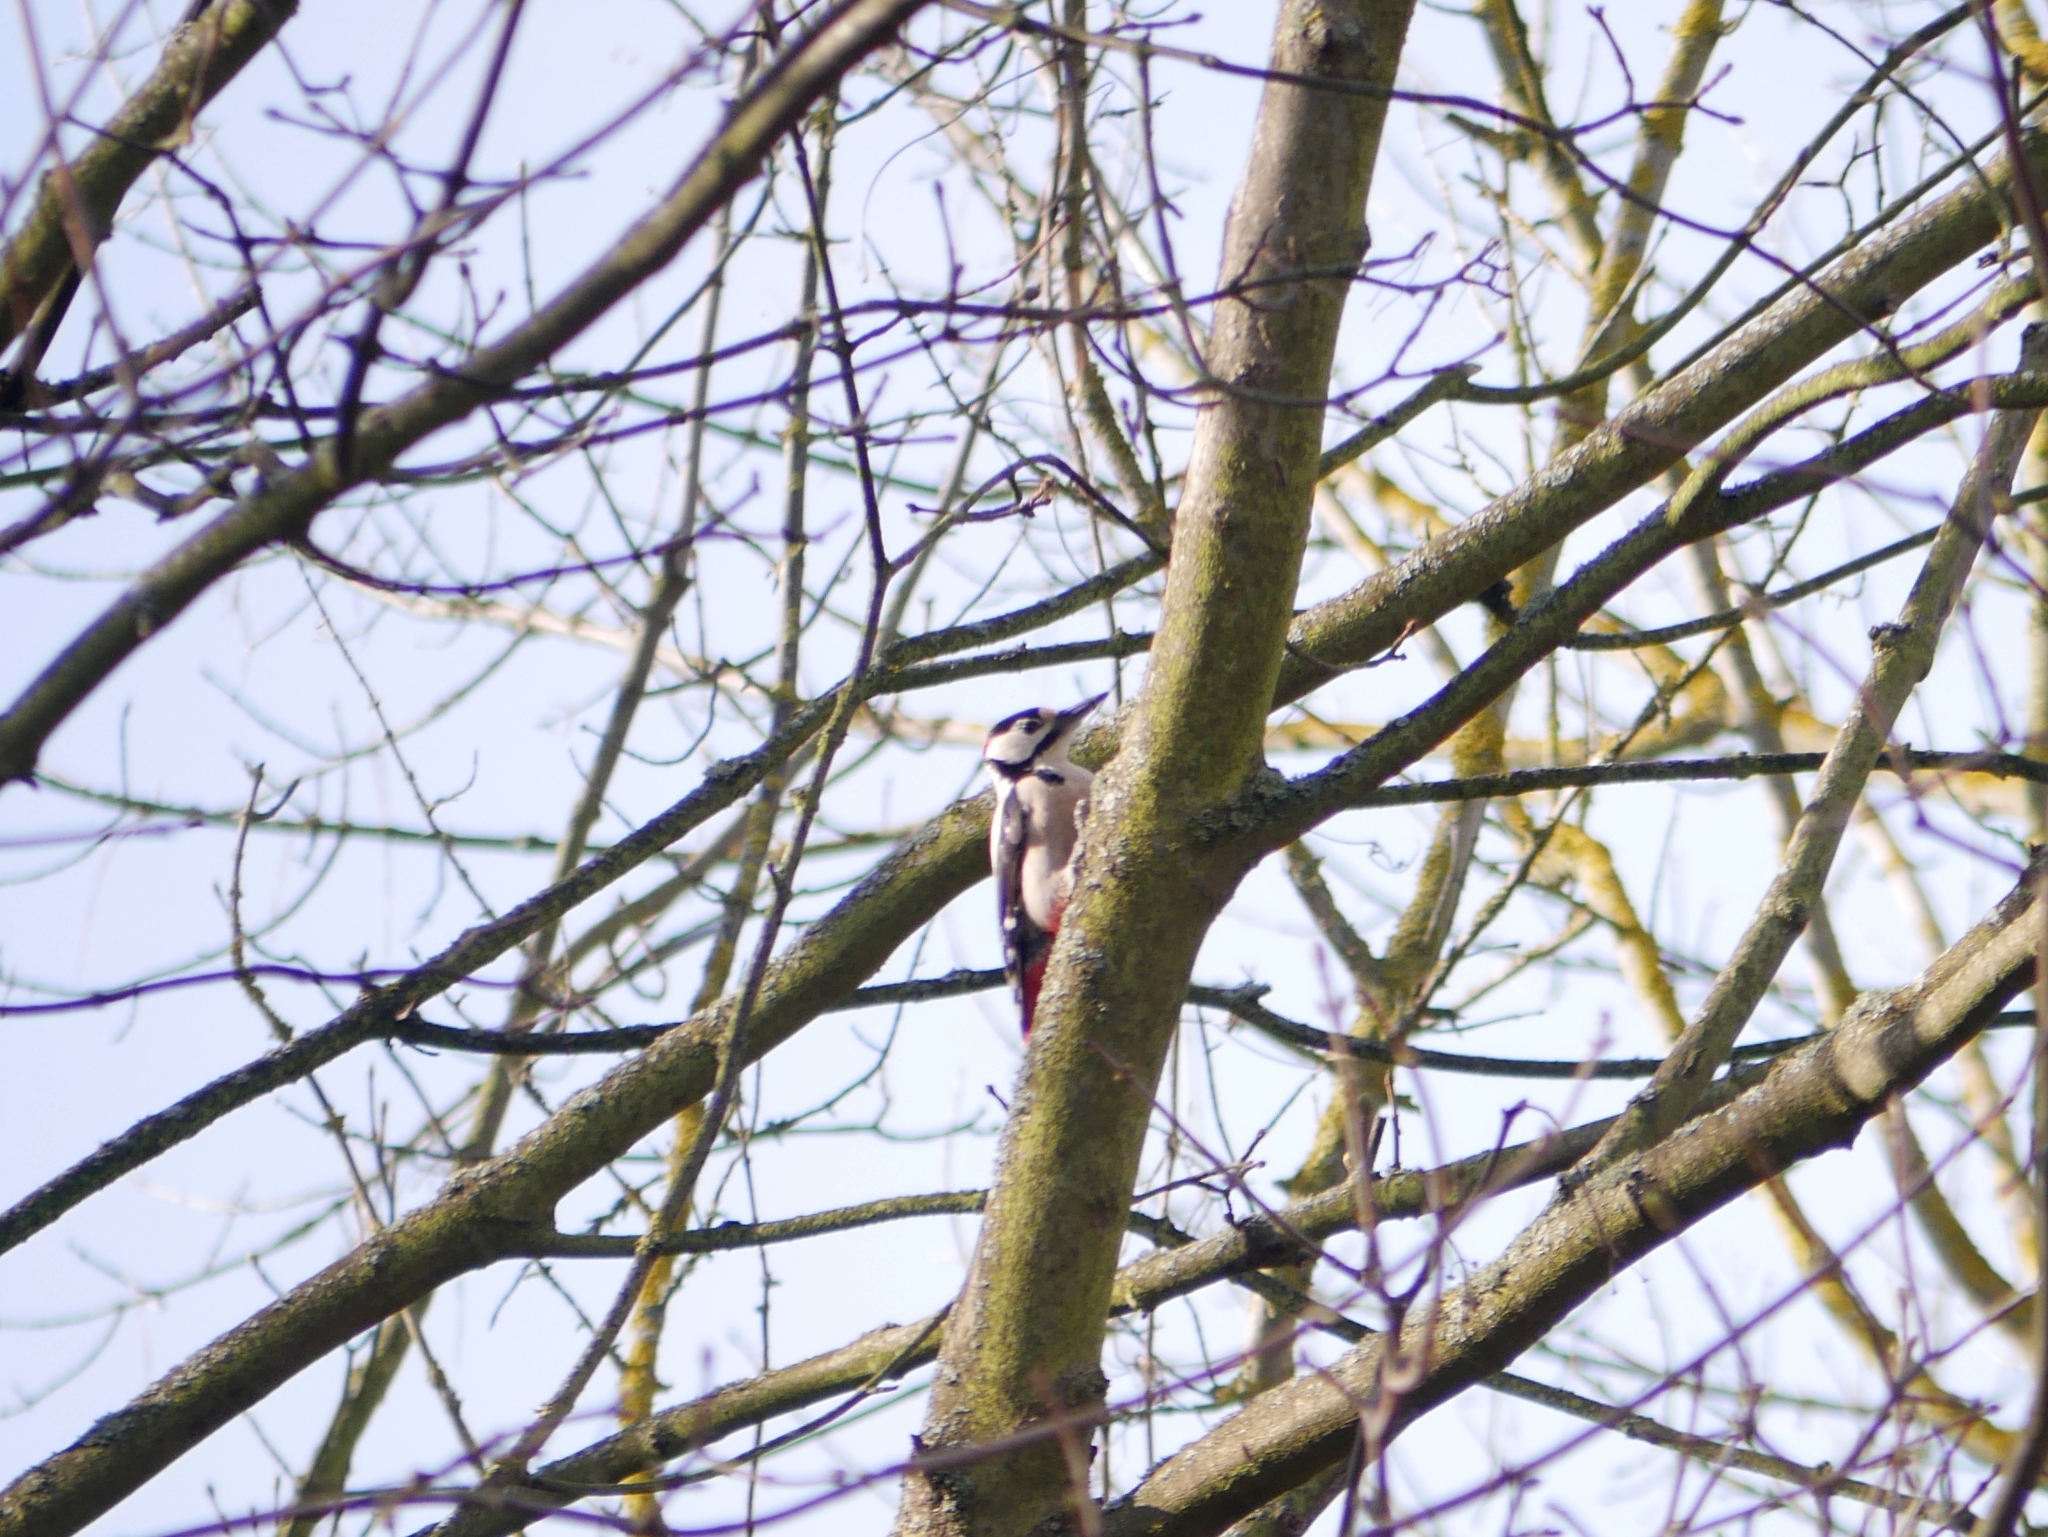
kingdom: Animalia
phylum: Chordata
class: Aves
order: Piciformes
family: Picidae
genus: Dendrocopos
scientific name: Dendrocopos major
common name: Great spotted woodpecker
